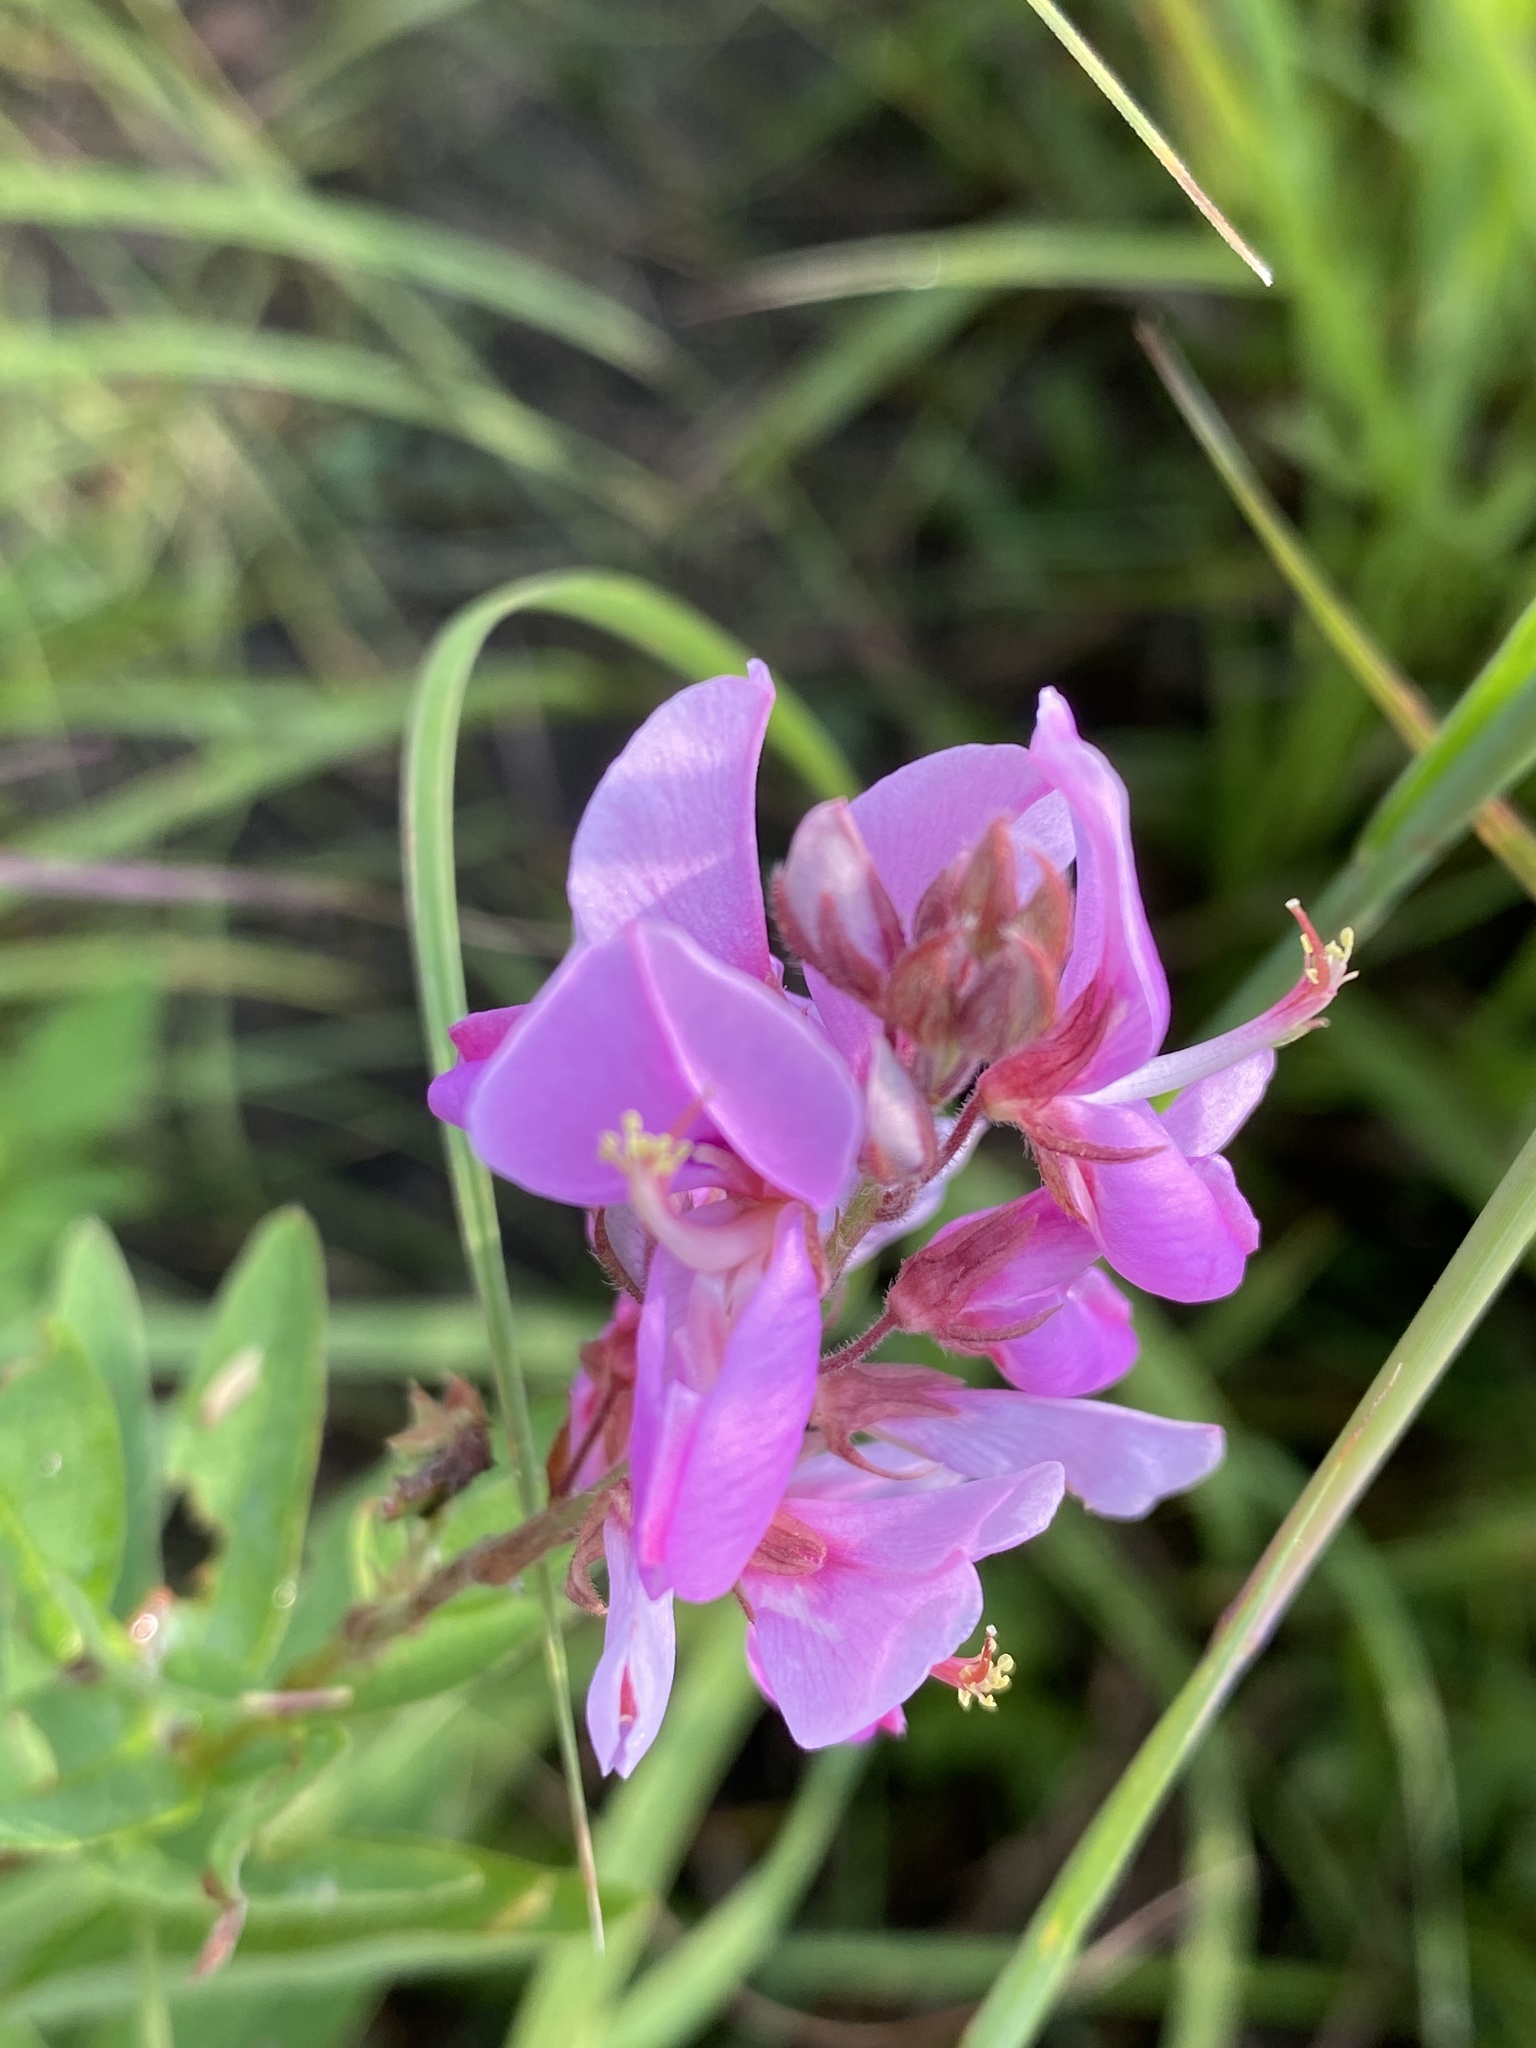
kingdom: Plantae
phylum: Tracheophyta
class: Magnoliopsida
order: Fabales
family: Fabaceae
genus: Desmodium
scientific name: Desmodium canadense
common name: Canada tick-trefoil
